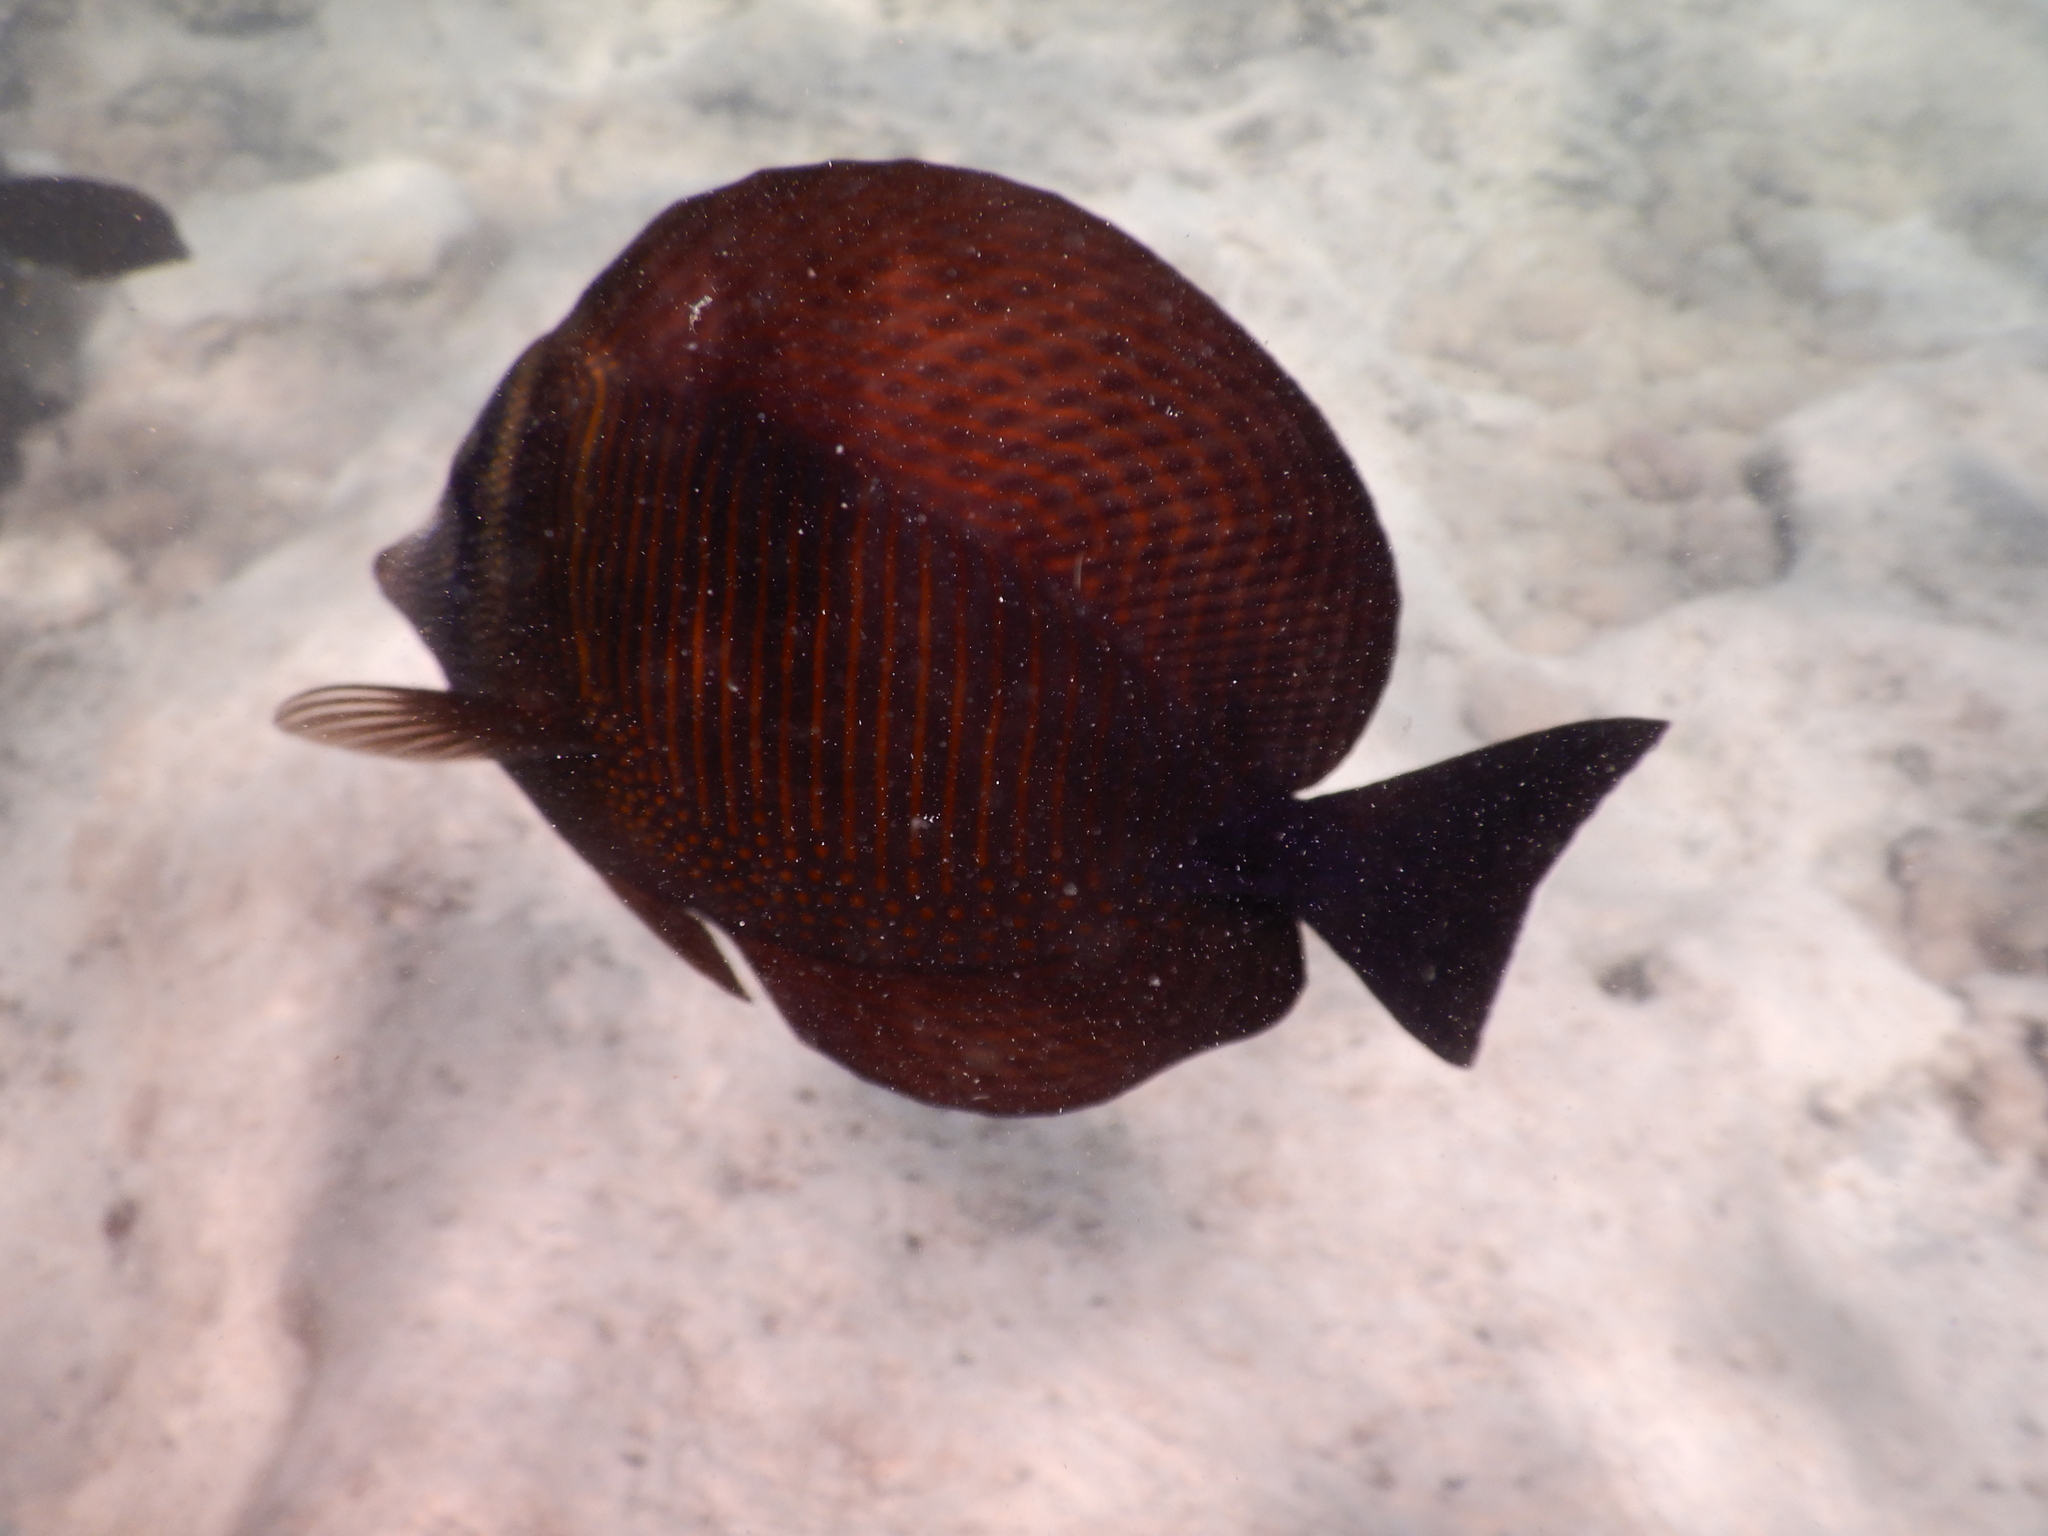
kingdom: Animalia
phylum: Chordata
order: Perciformes
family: Acanthuridae
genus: Zebrasoma
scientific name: Zebrasoma desjardinii
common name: Desjardin's sailfin tang
